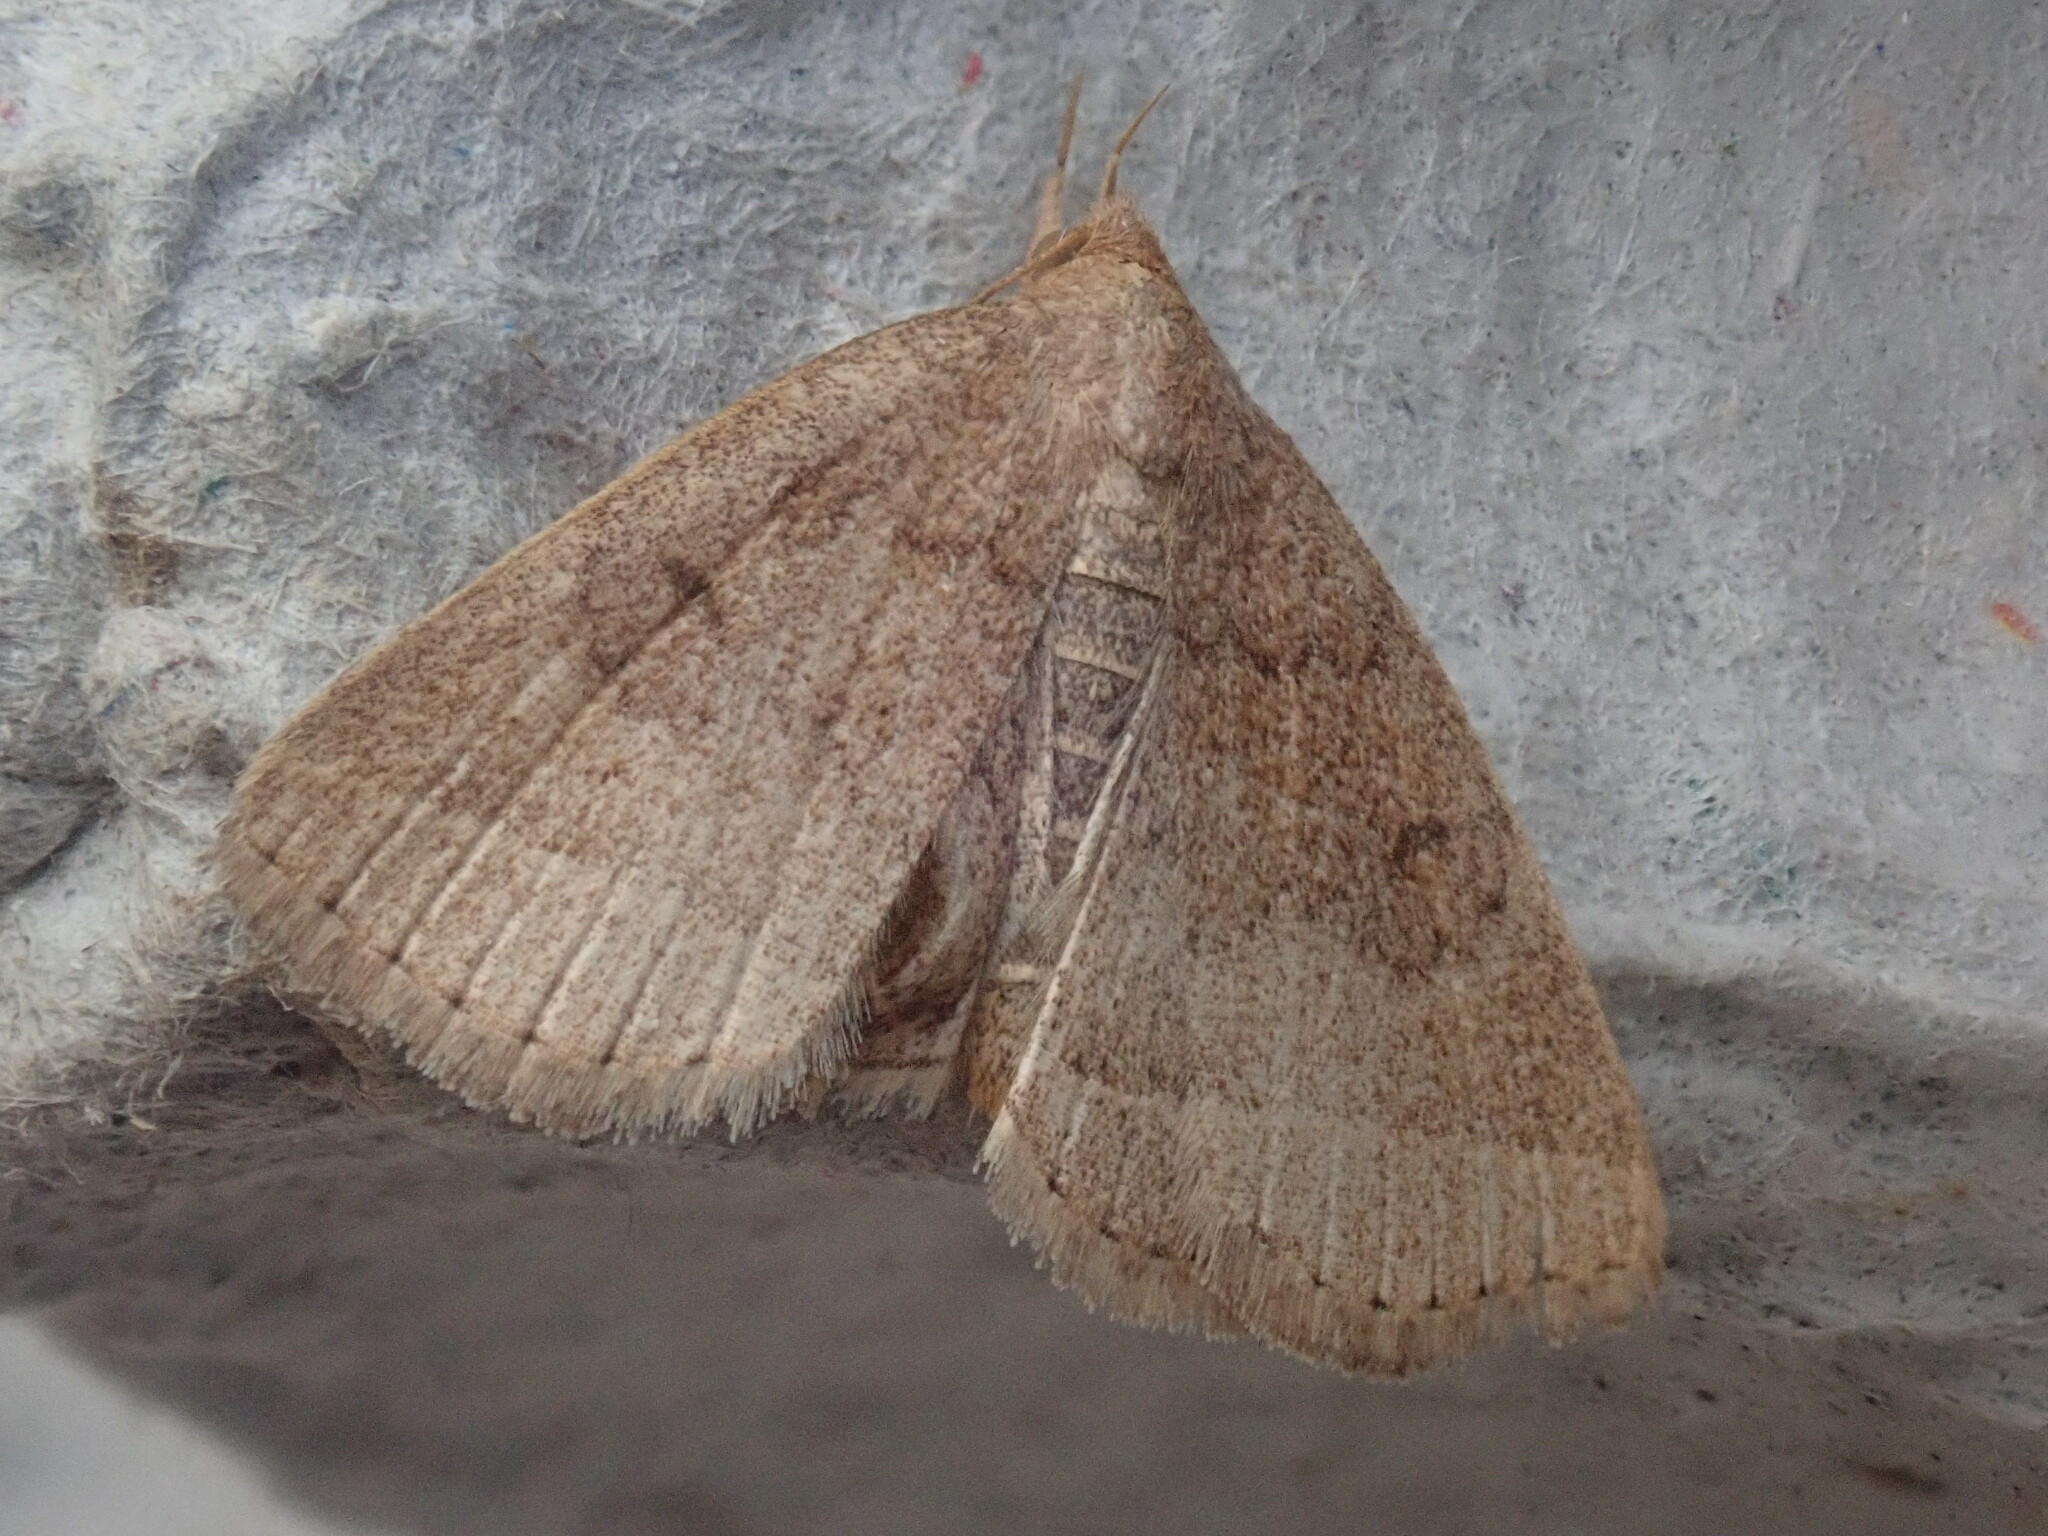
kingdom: Animalia
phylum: Arthropoda
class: Insecta
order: Lepidoptera
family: Erebidae
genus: Zanclognatha
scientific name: Zanclognatha jacchusalis
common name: Yellowish zanclognatha
